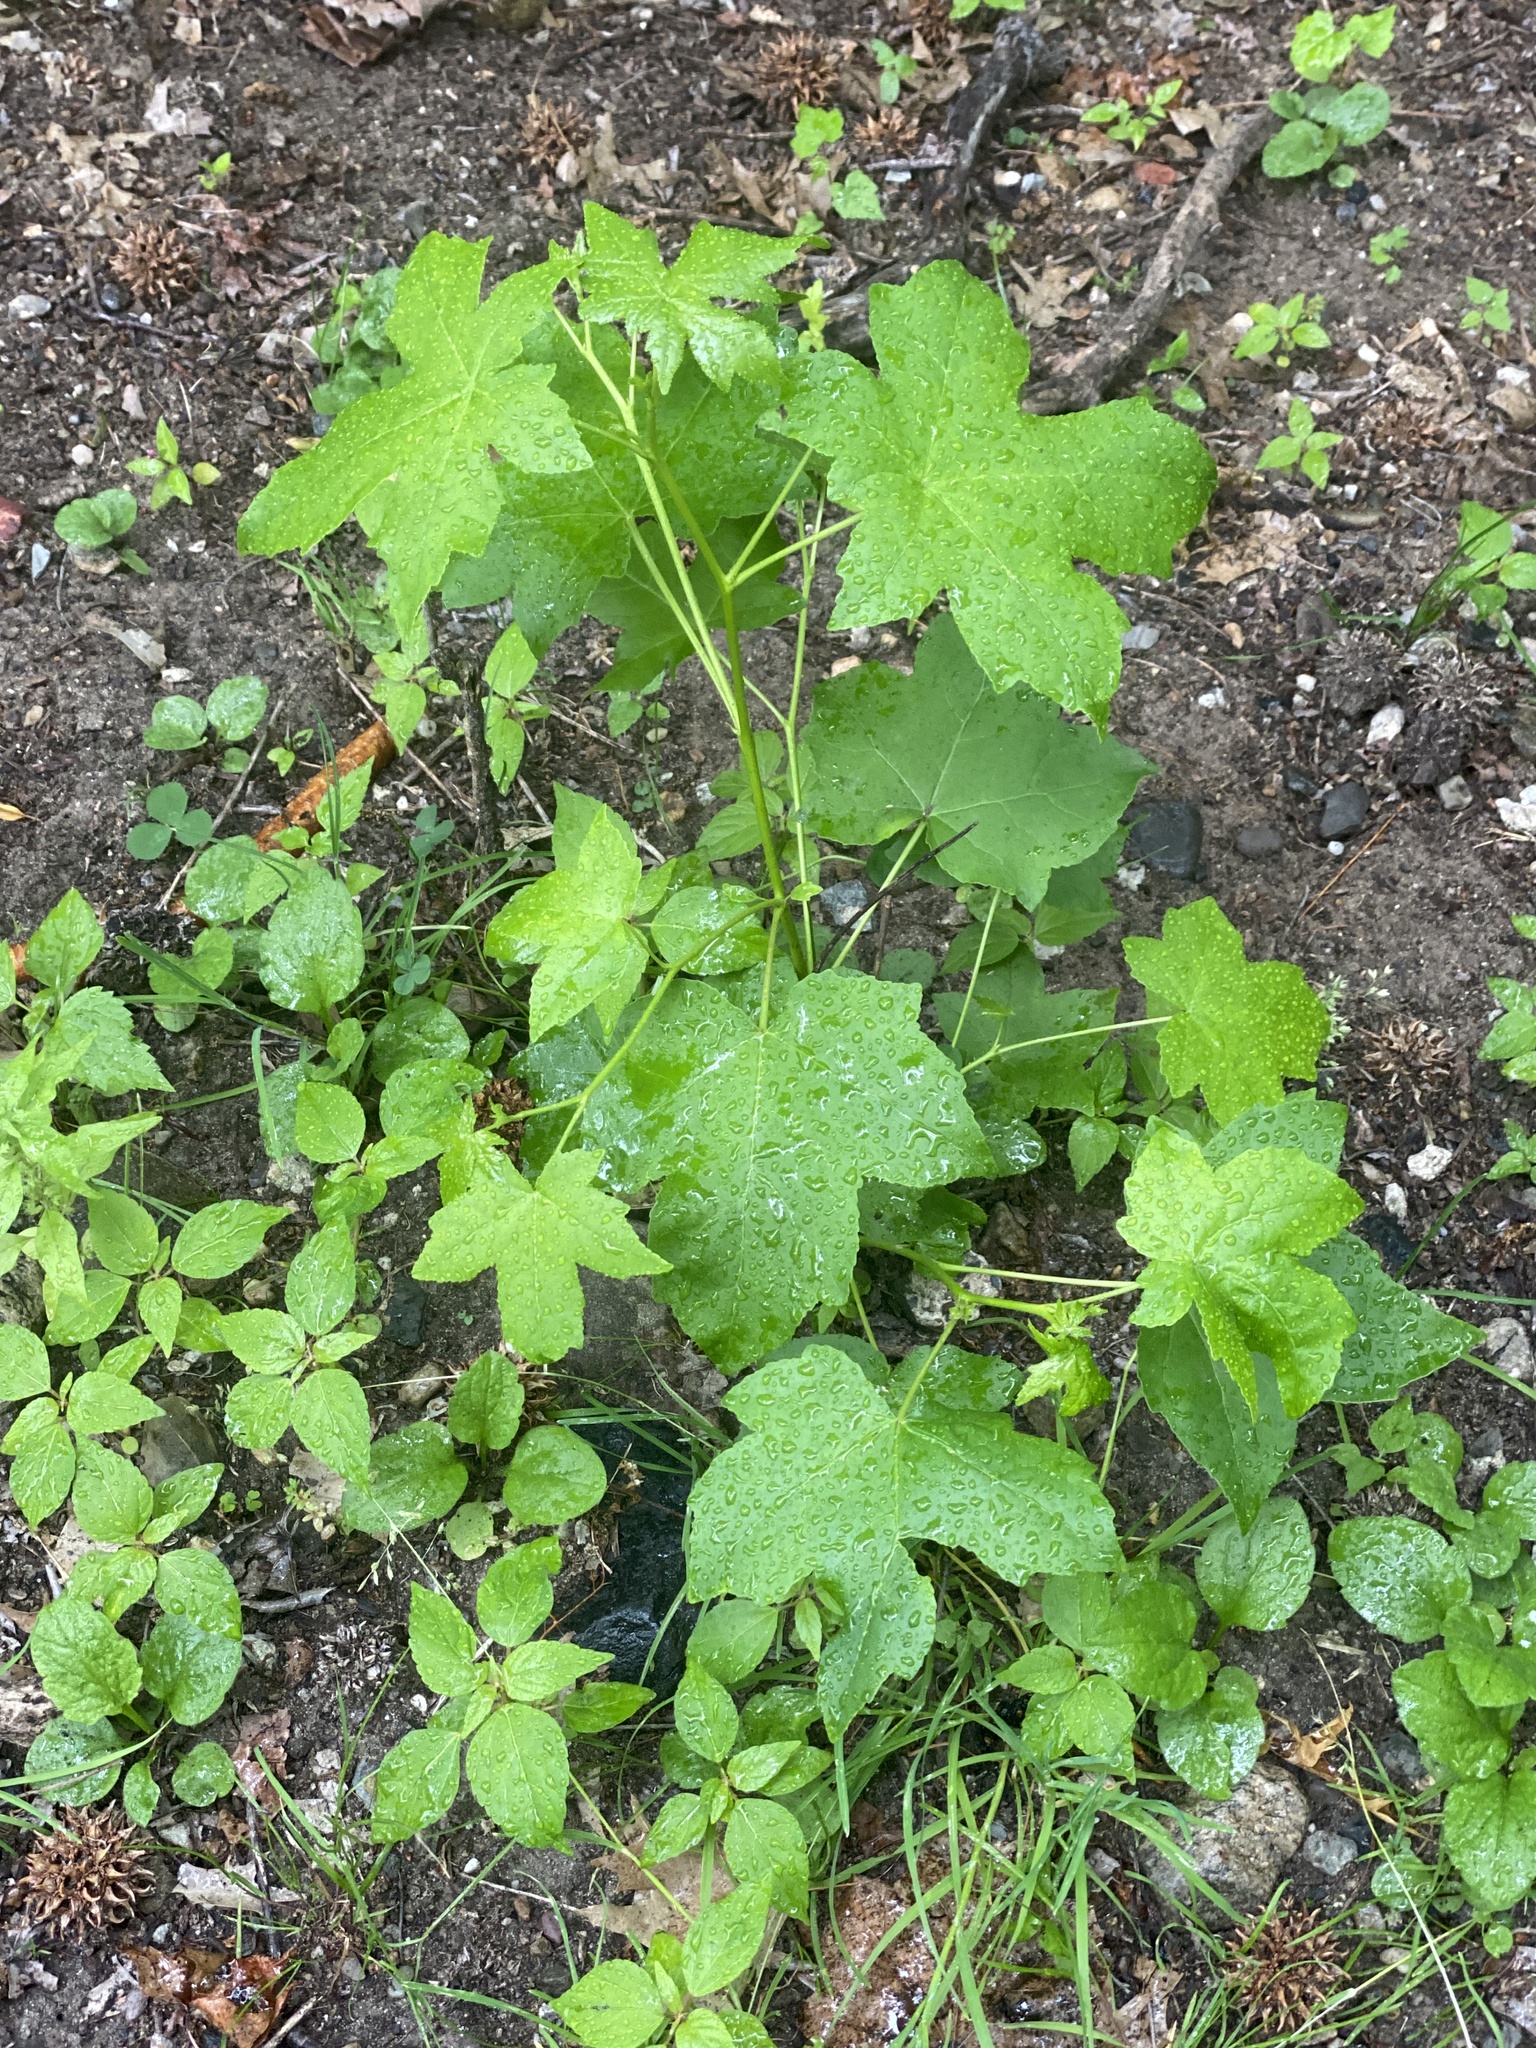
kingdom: Plantae
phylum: Tracheophyta
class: Magnoliopsida
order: Saxifragales
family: Altingiaceae
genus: Liquidambar
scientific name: Liquidambar styraciflua
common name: Sweet gum
